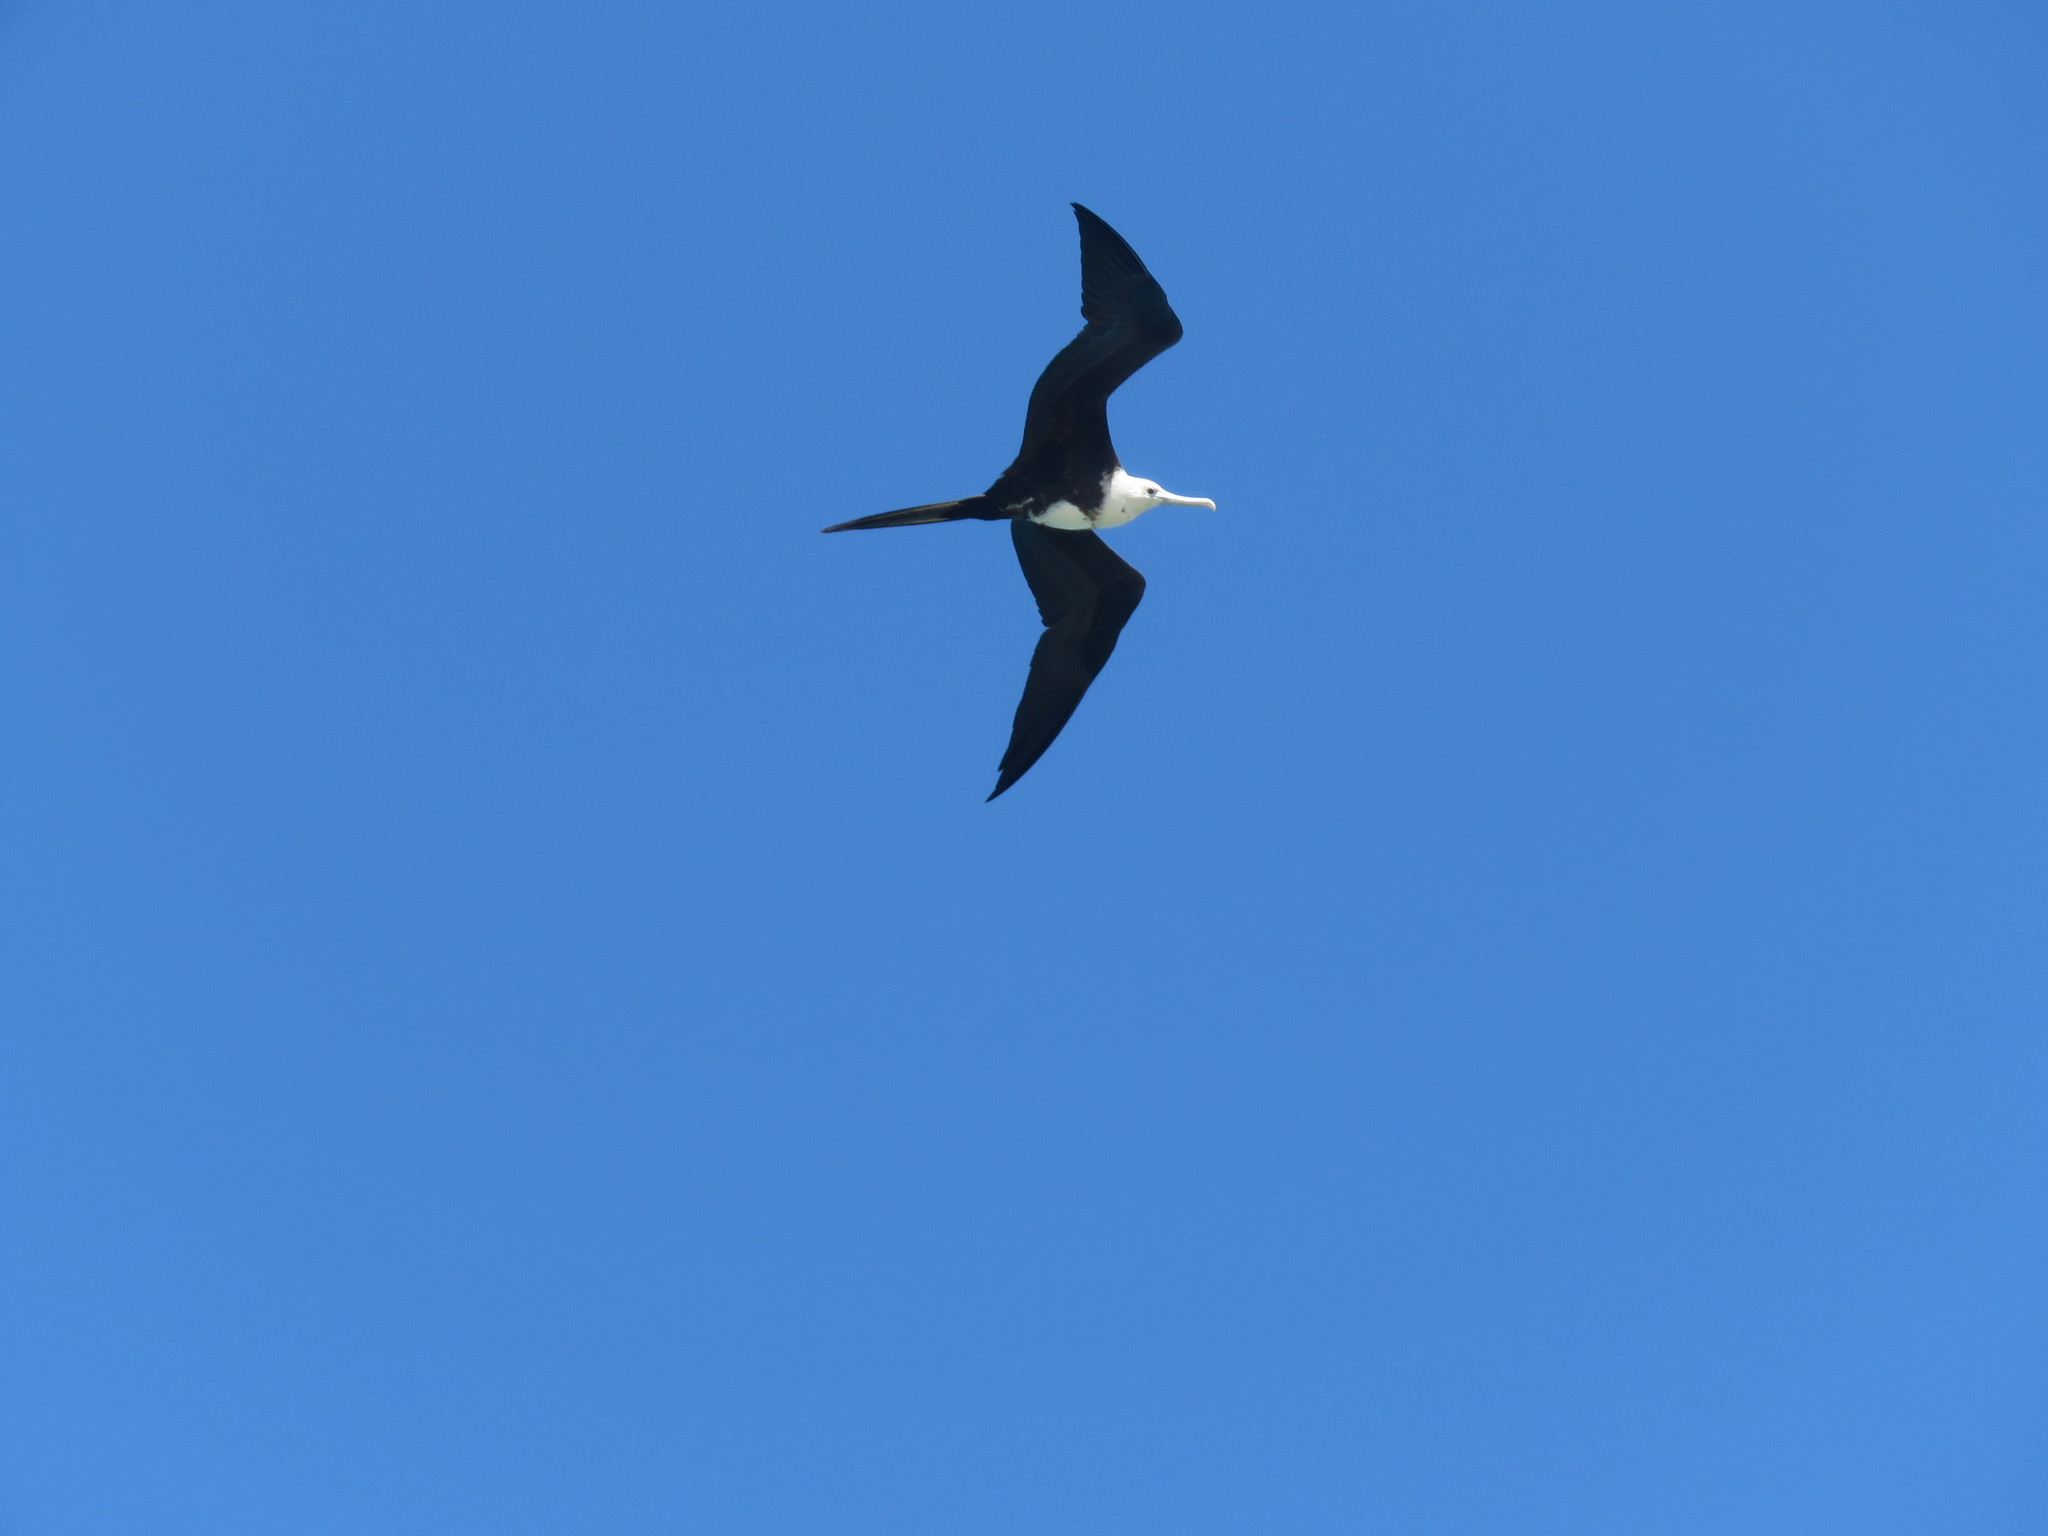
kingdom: Animalia
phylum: Chordata
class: Aves
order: Suliformes
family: Fregatidae
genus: Fregata
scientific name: Fregata magnificens
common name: Magnificent frigatebird
